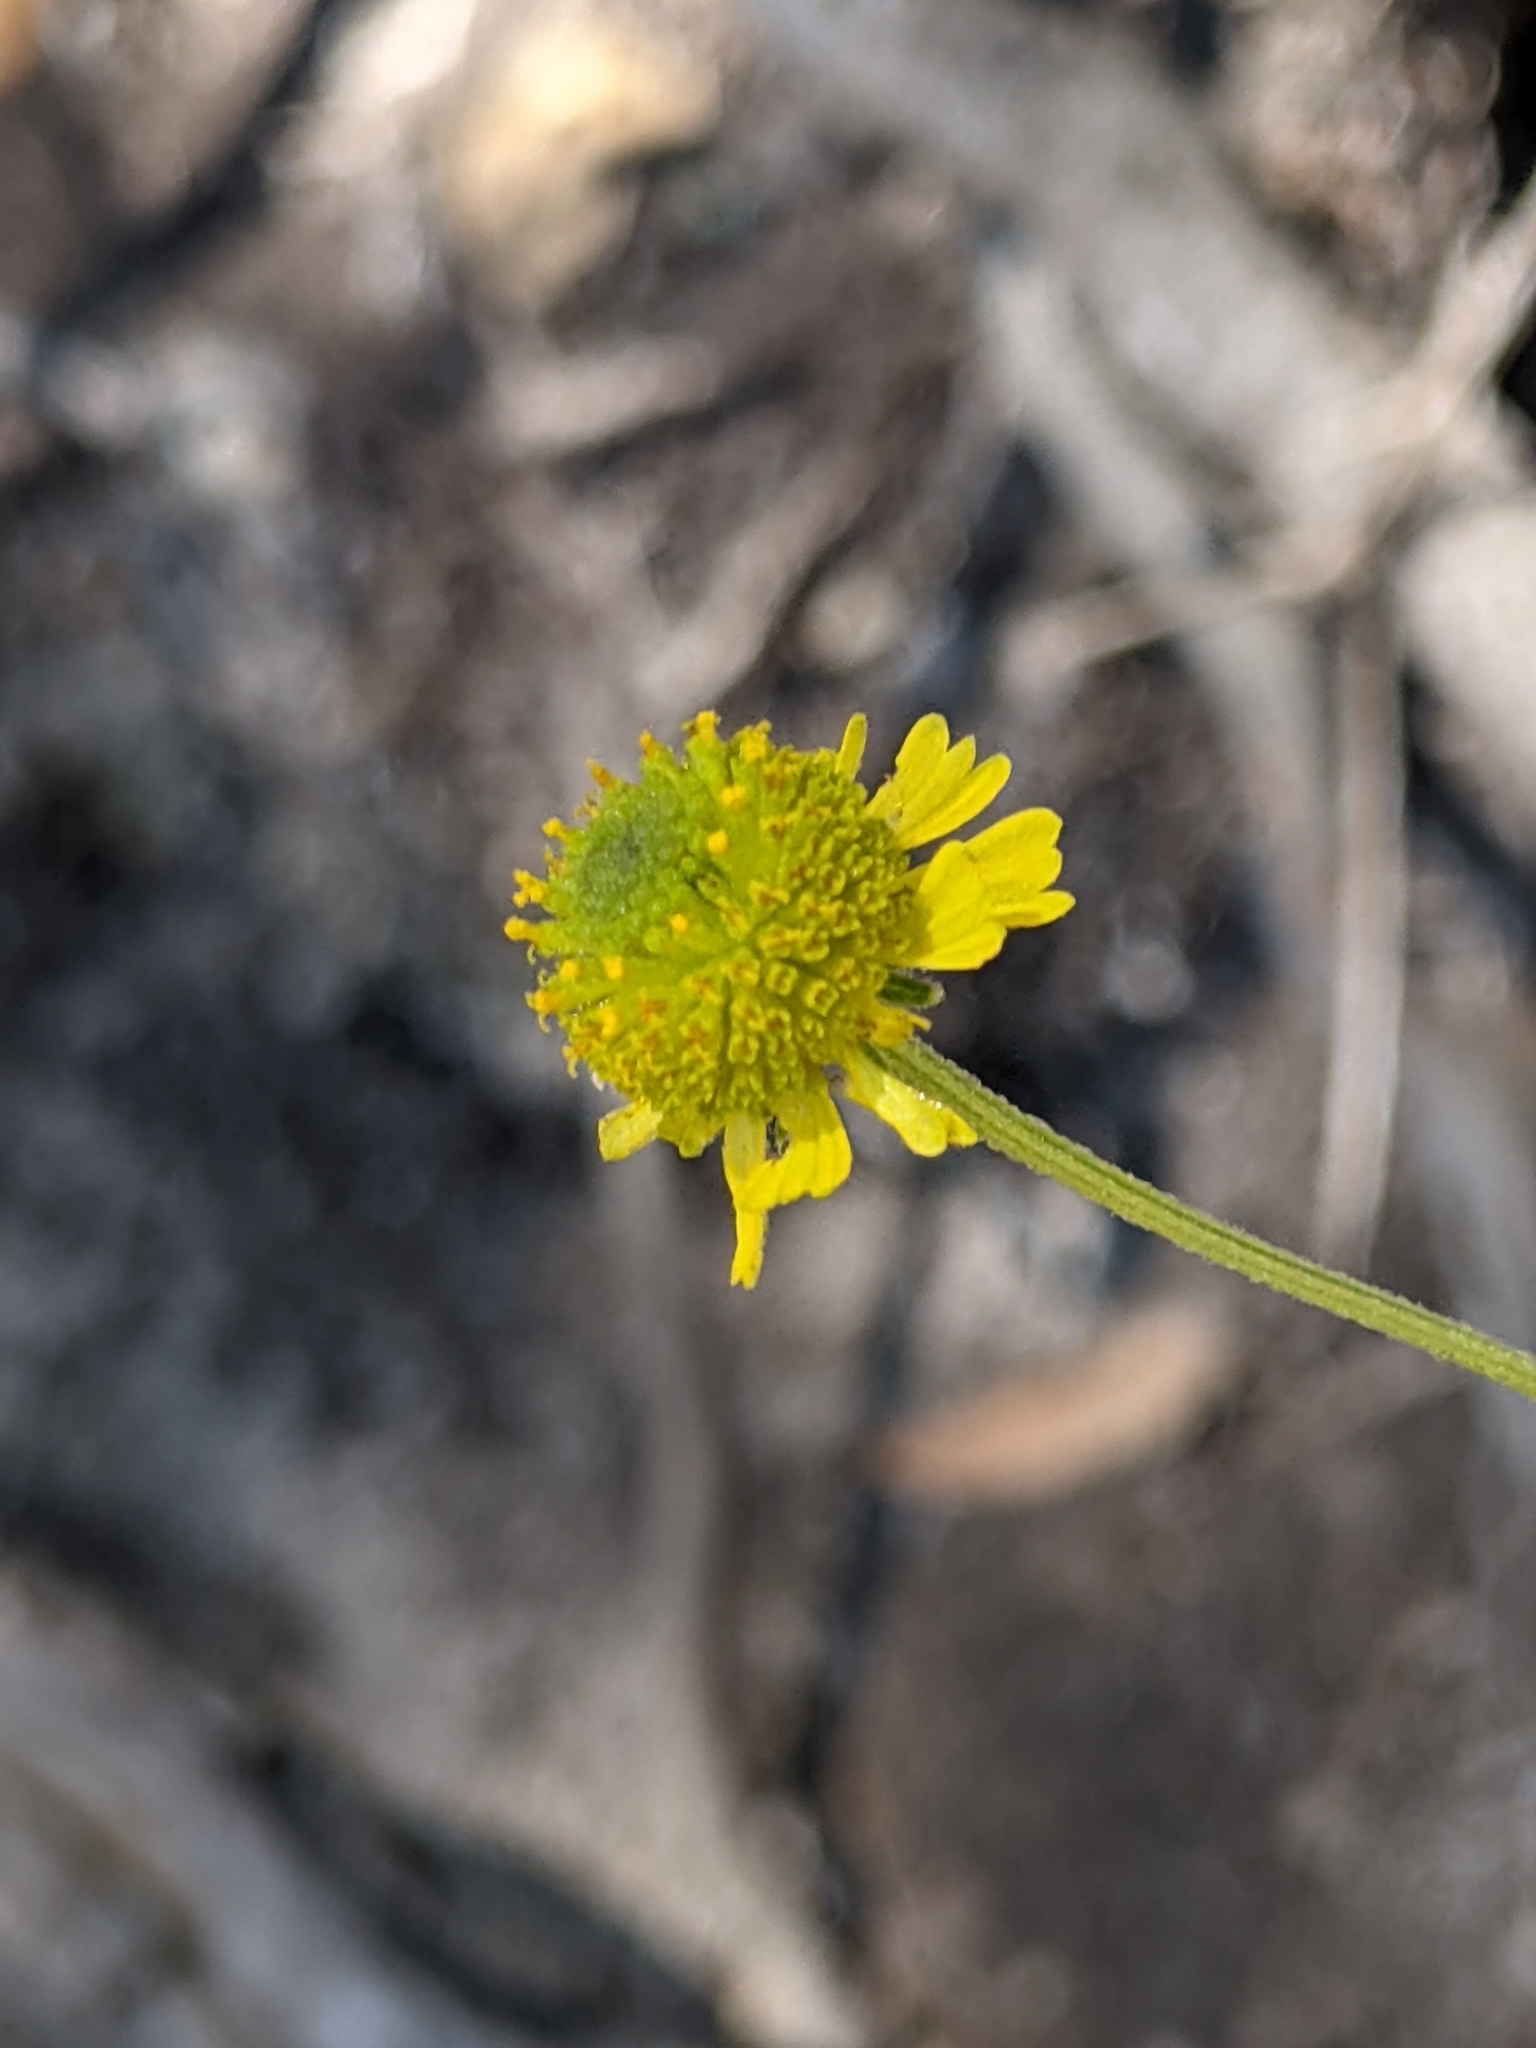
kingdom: Plantae
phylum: Tracheophyta
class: Magnoliopsida
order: Asterales
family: Asteraceae
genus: Helenium
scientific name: Helenium puberulum
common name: Sneezewort
